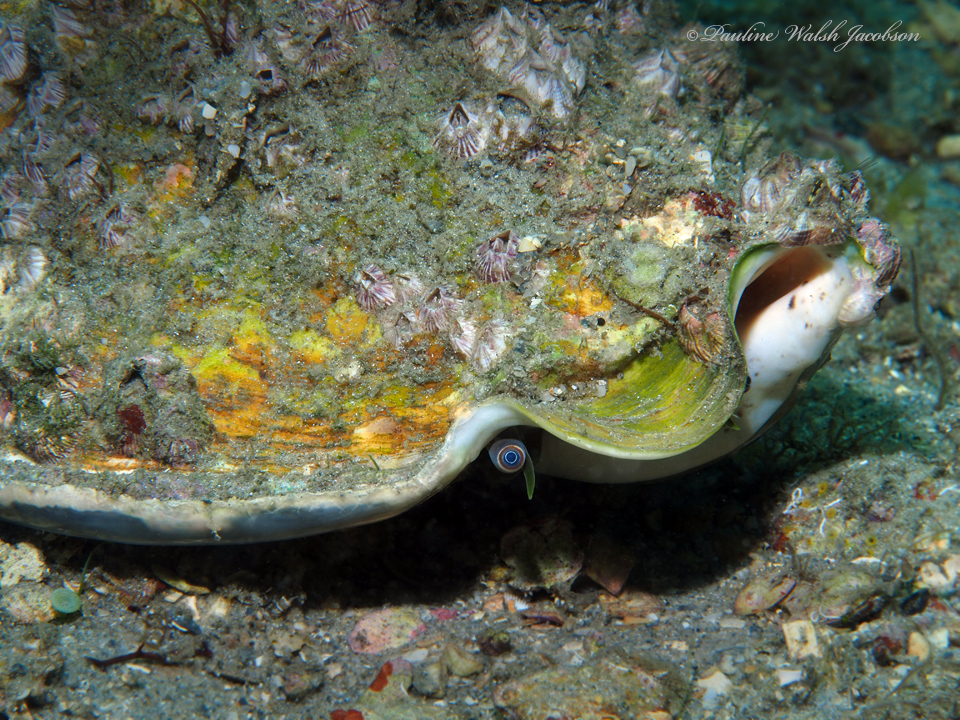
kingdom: Animalia
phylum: Mollusca
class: Gastropoda
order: Littorinimorpha
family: Strombidae
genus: Macrostrombus
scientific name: Macrostrombus costatus
